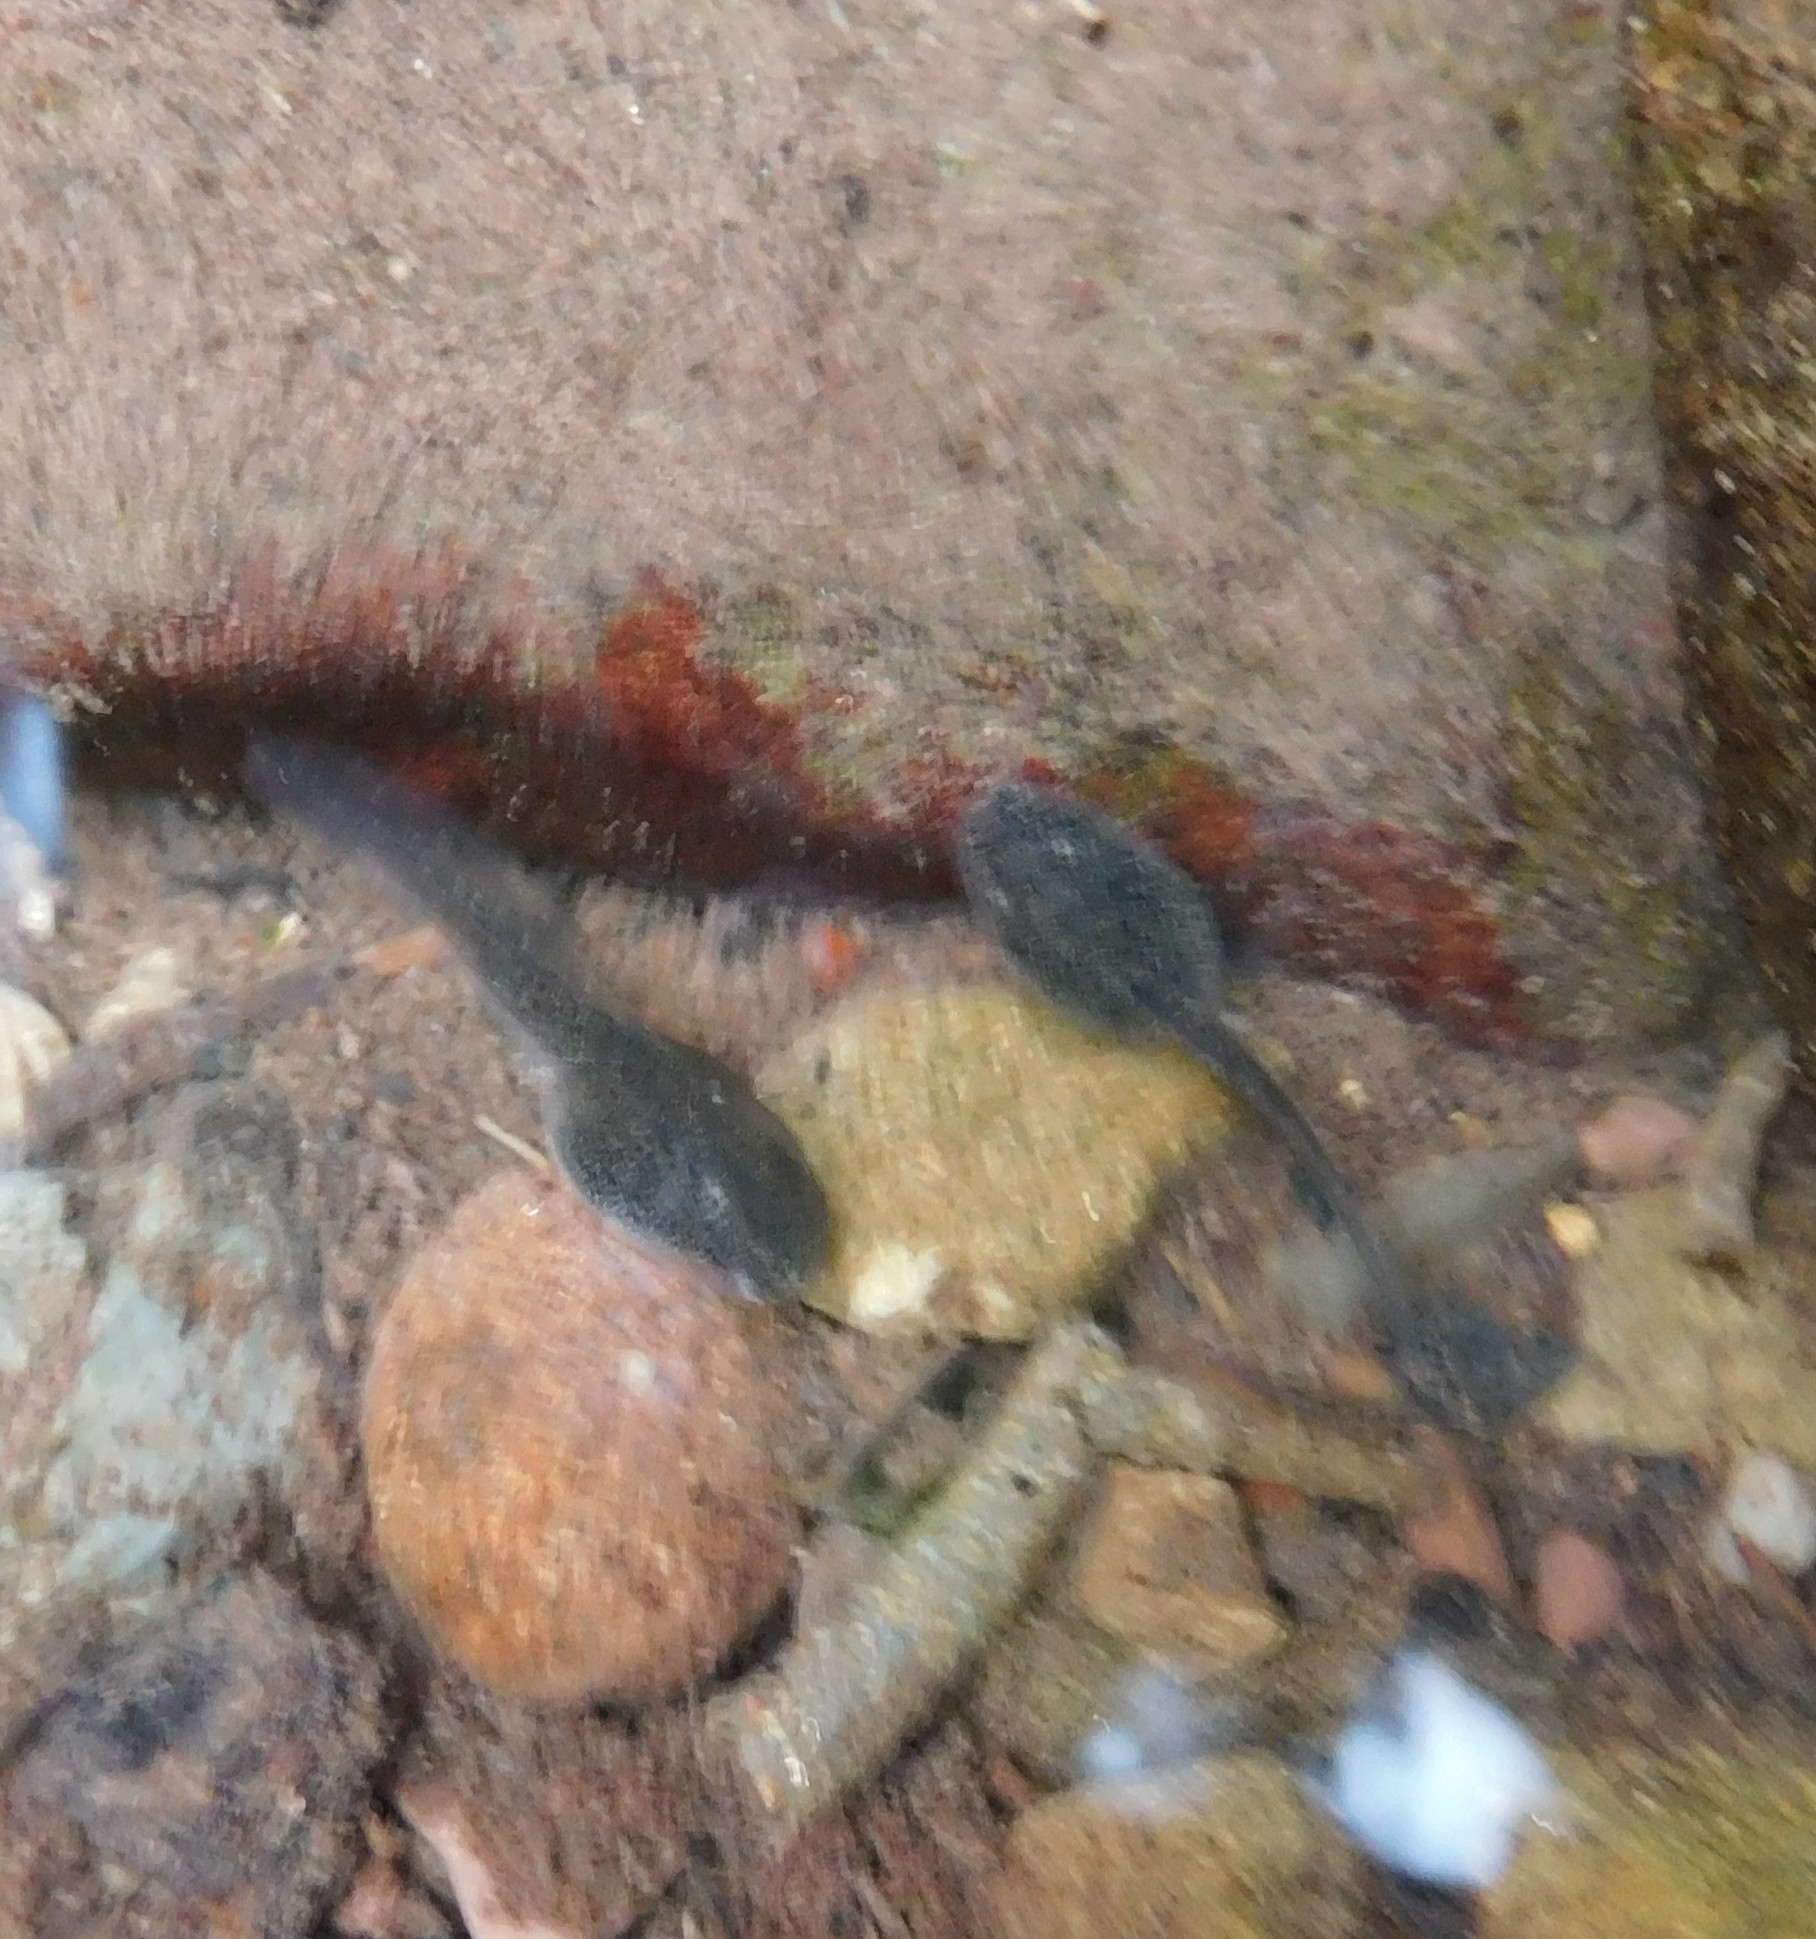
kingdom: Animalia
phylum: Chordata
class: Amphibia
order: Anura
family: Ranidae
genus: Rana
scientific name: Rana italica
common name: Italian stream frog
